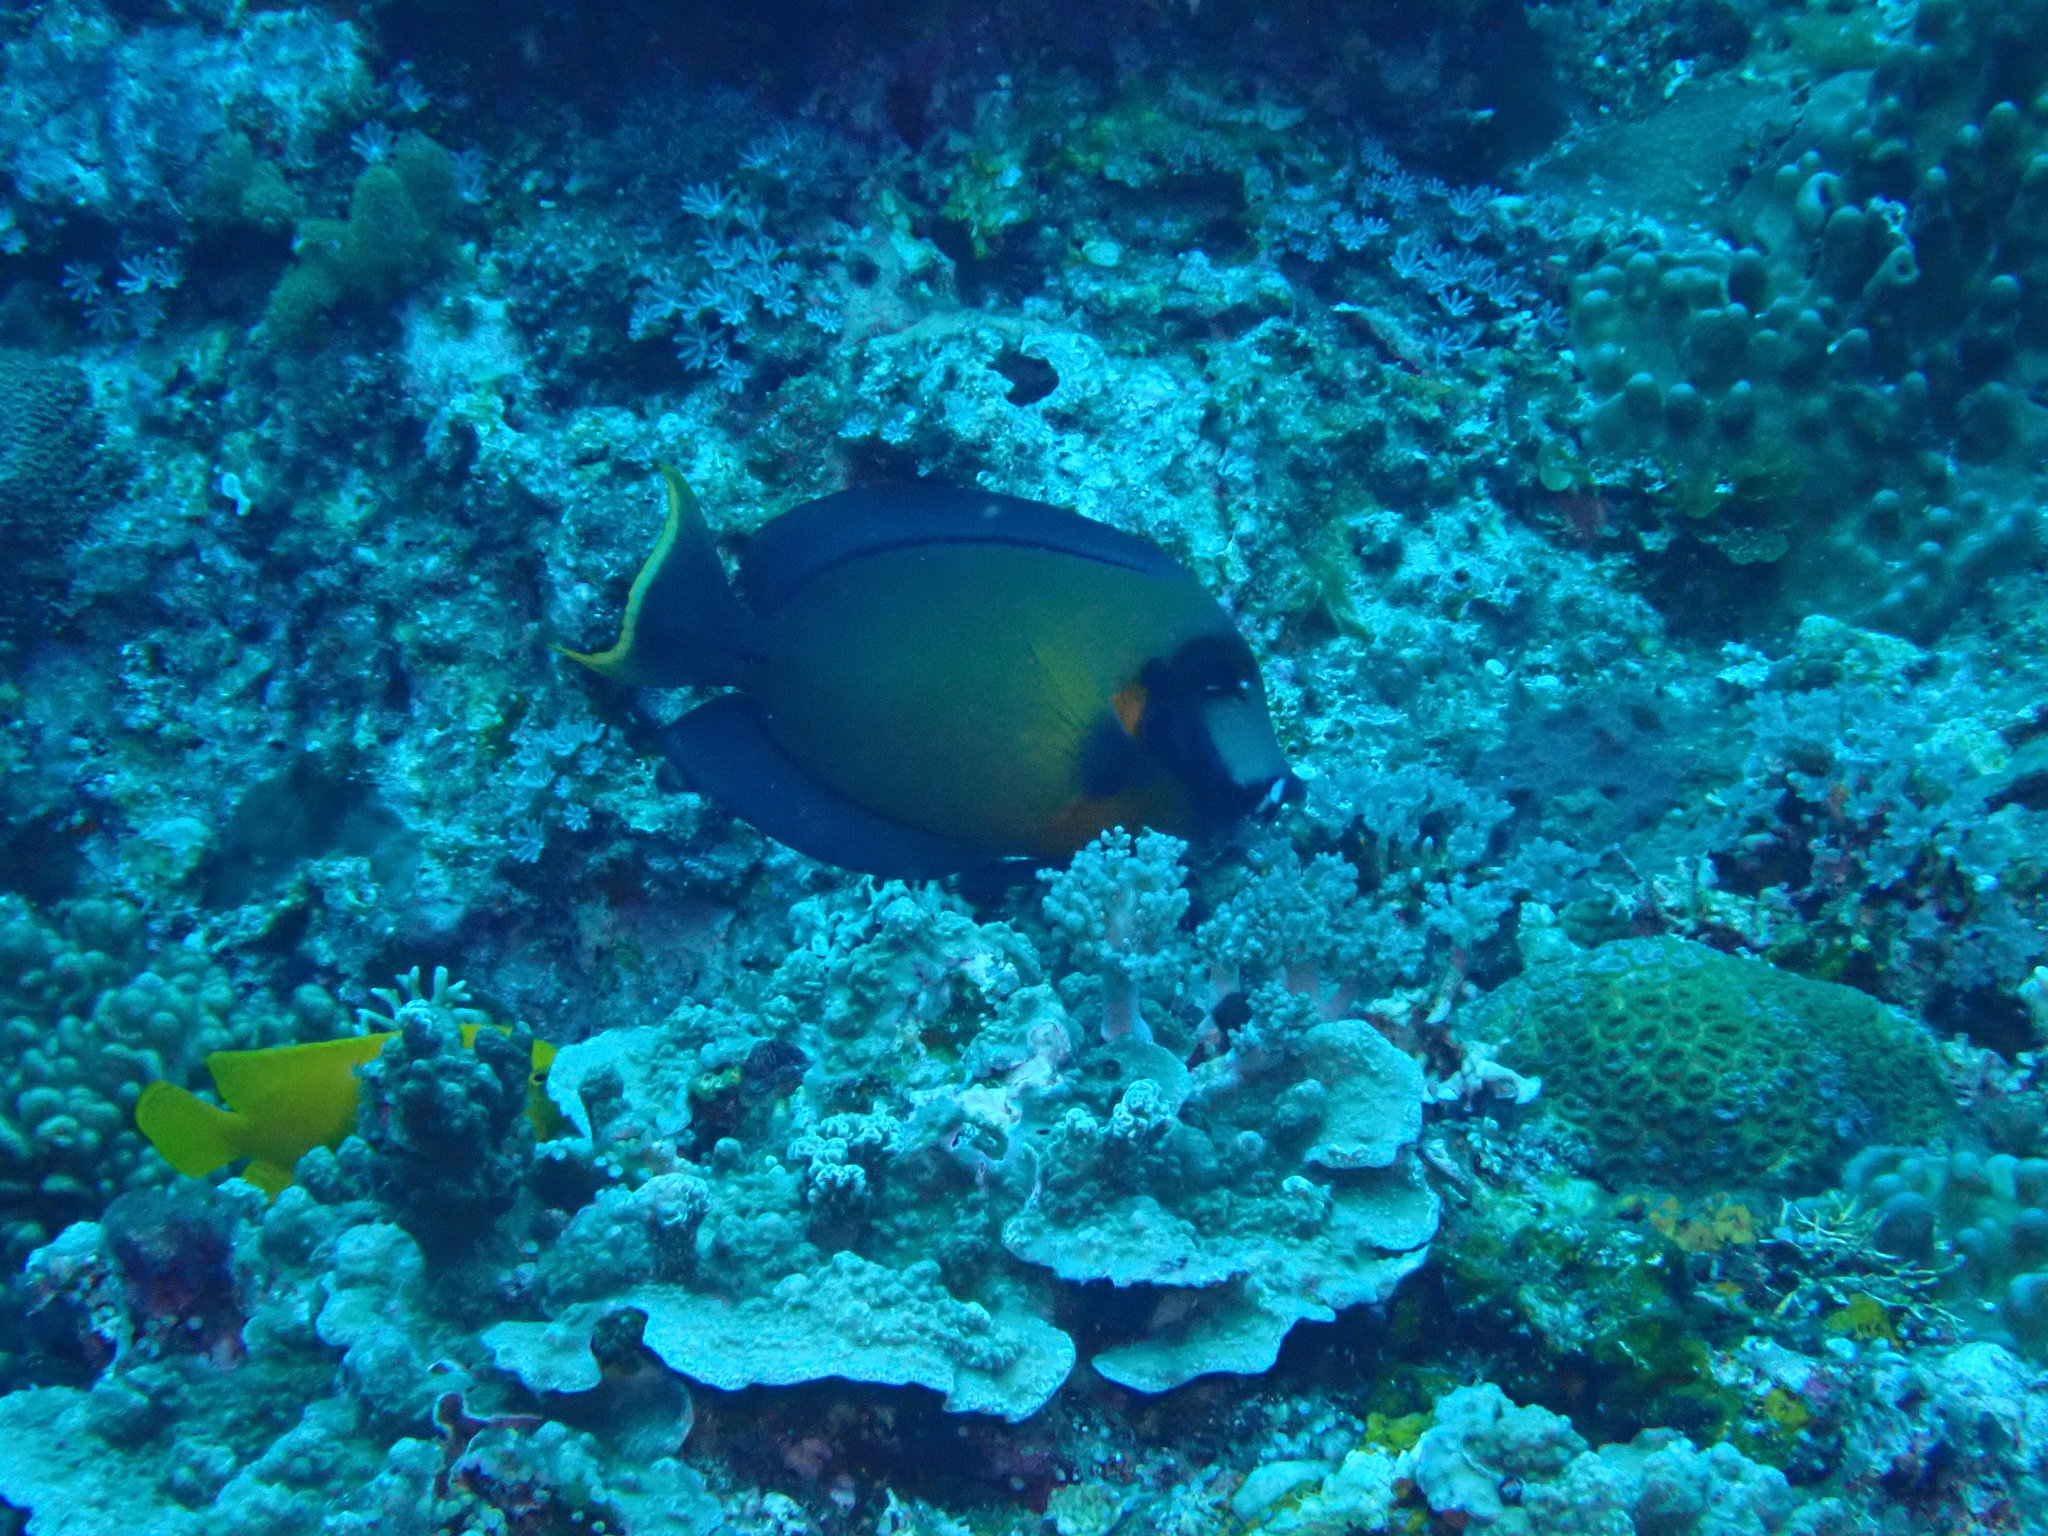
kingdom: Animalia
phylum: Chordata
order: Perciformes
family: Acanthuridae
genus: Acanthurus
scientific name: Acanthurus pyroferus
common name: Chocolate surgeonfish
